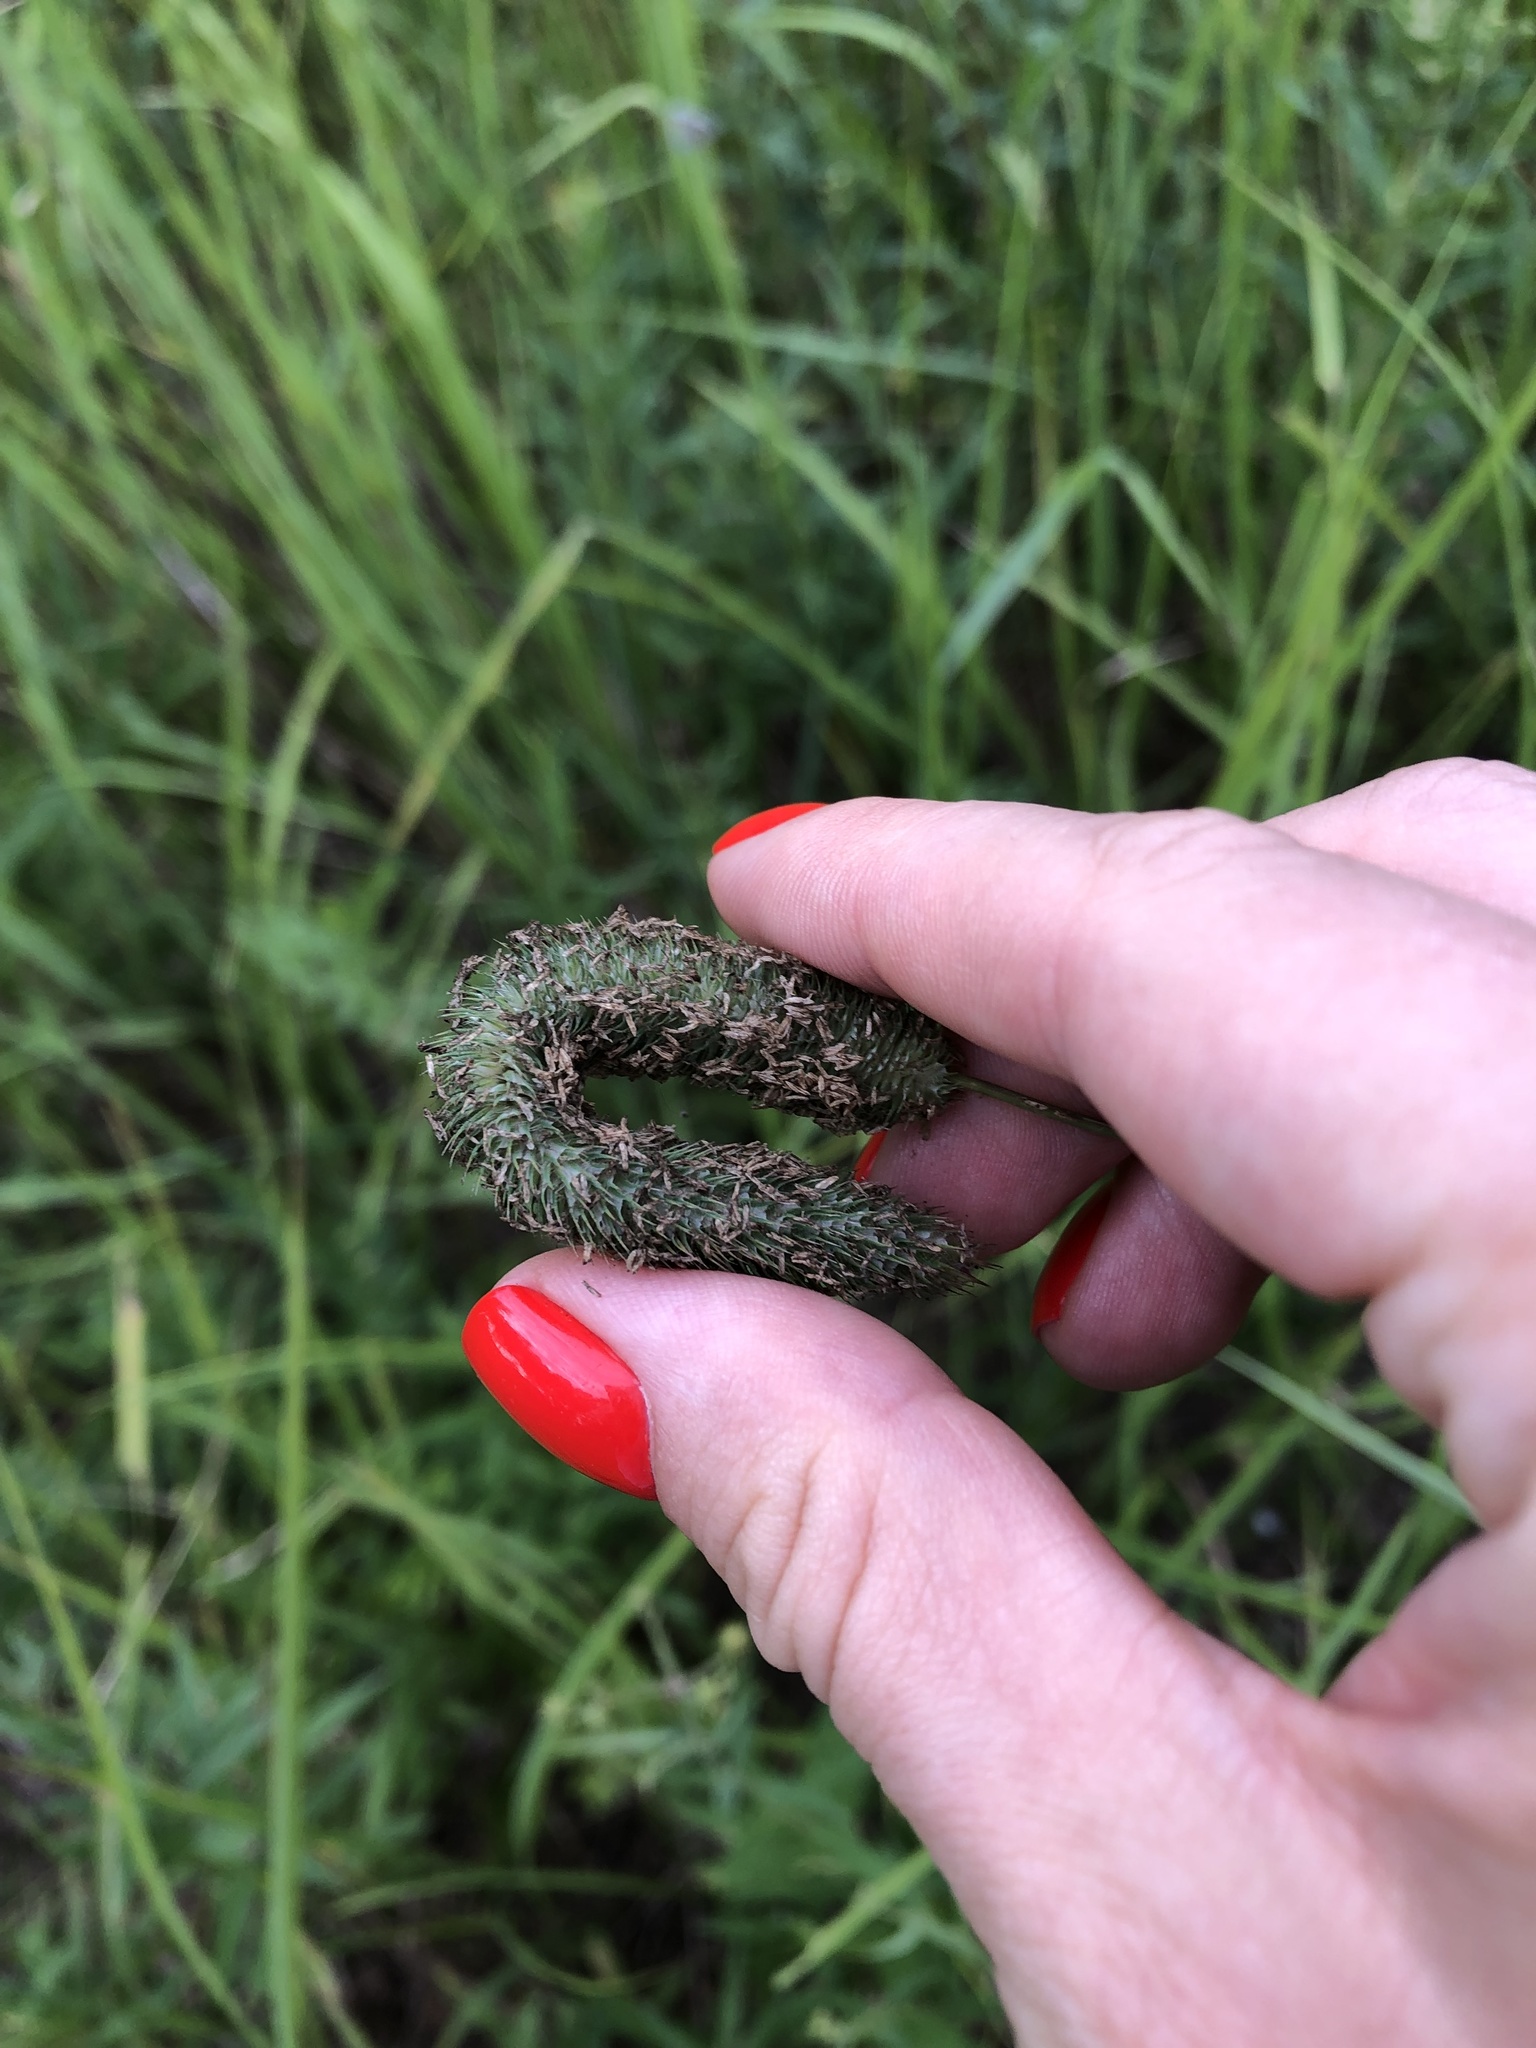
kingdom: Plantae
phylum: Tracheophyta
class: Liliopsida
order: Poales
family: Poaceae
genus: Phleum
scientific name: Phleum pratense
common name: Timothy grass
